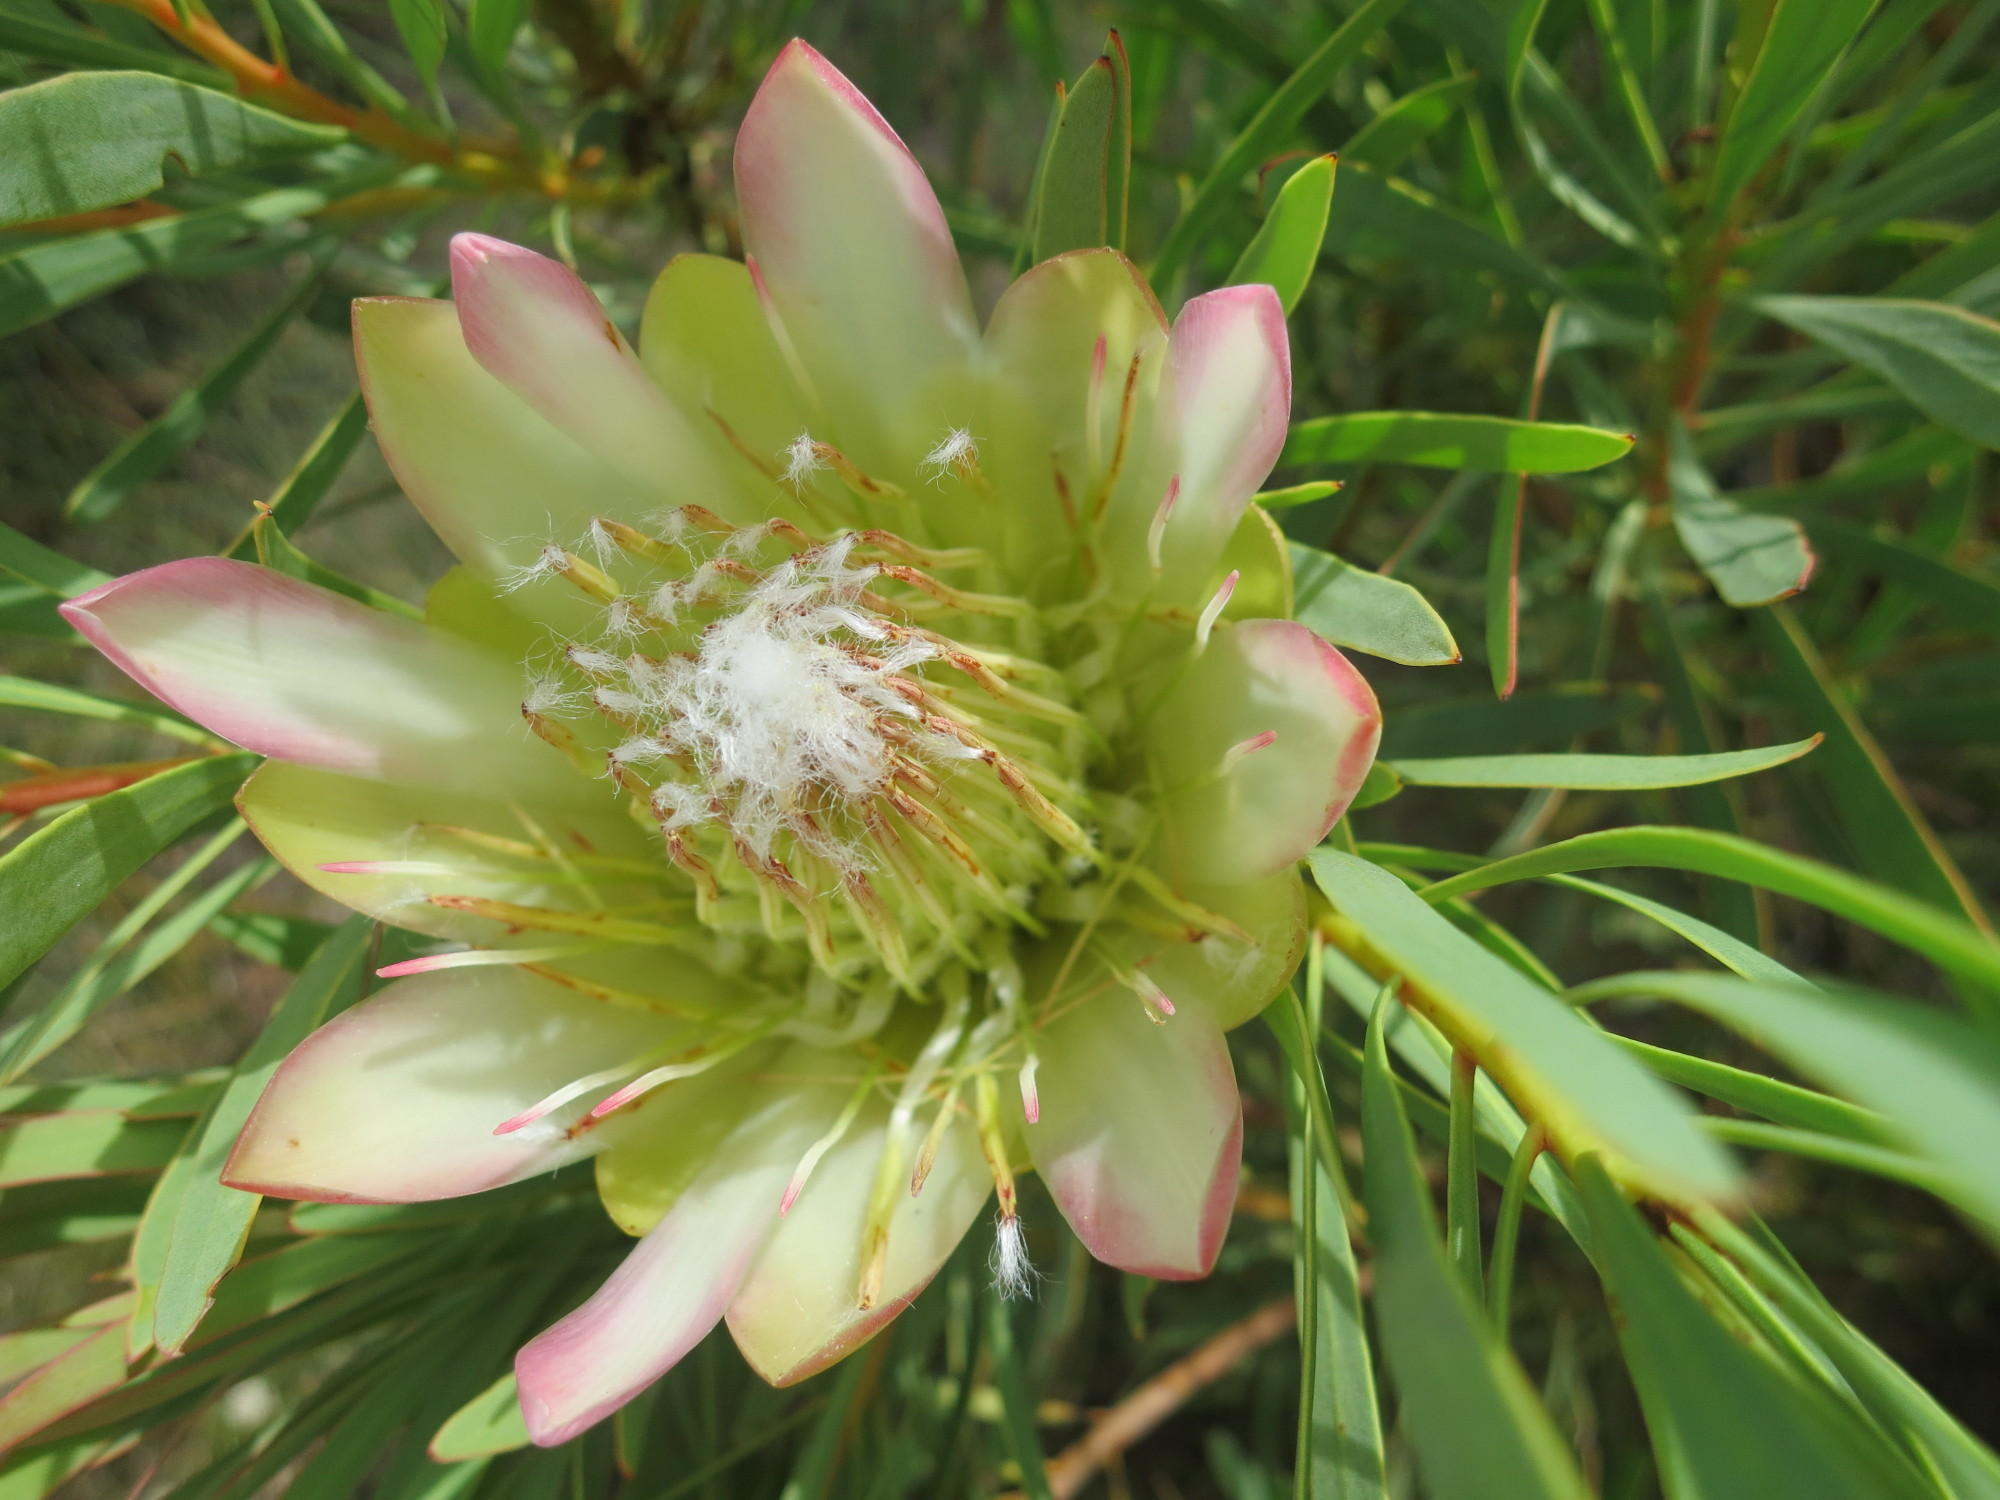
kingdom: Plantae
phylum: Tracheophyta
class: Magnoliopsida
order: Proteales
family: Proteaceae
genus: Protea
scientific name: Protea repens
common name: Sugarbush
